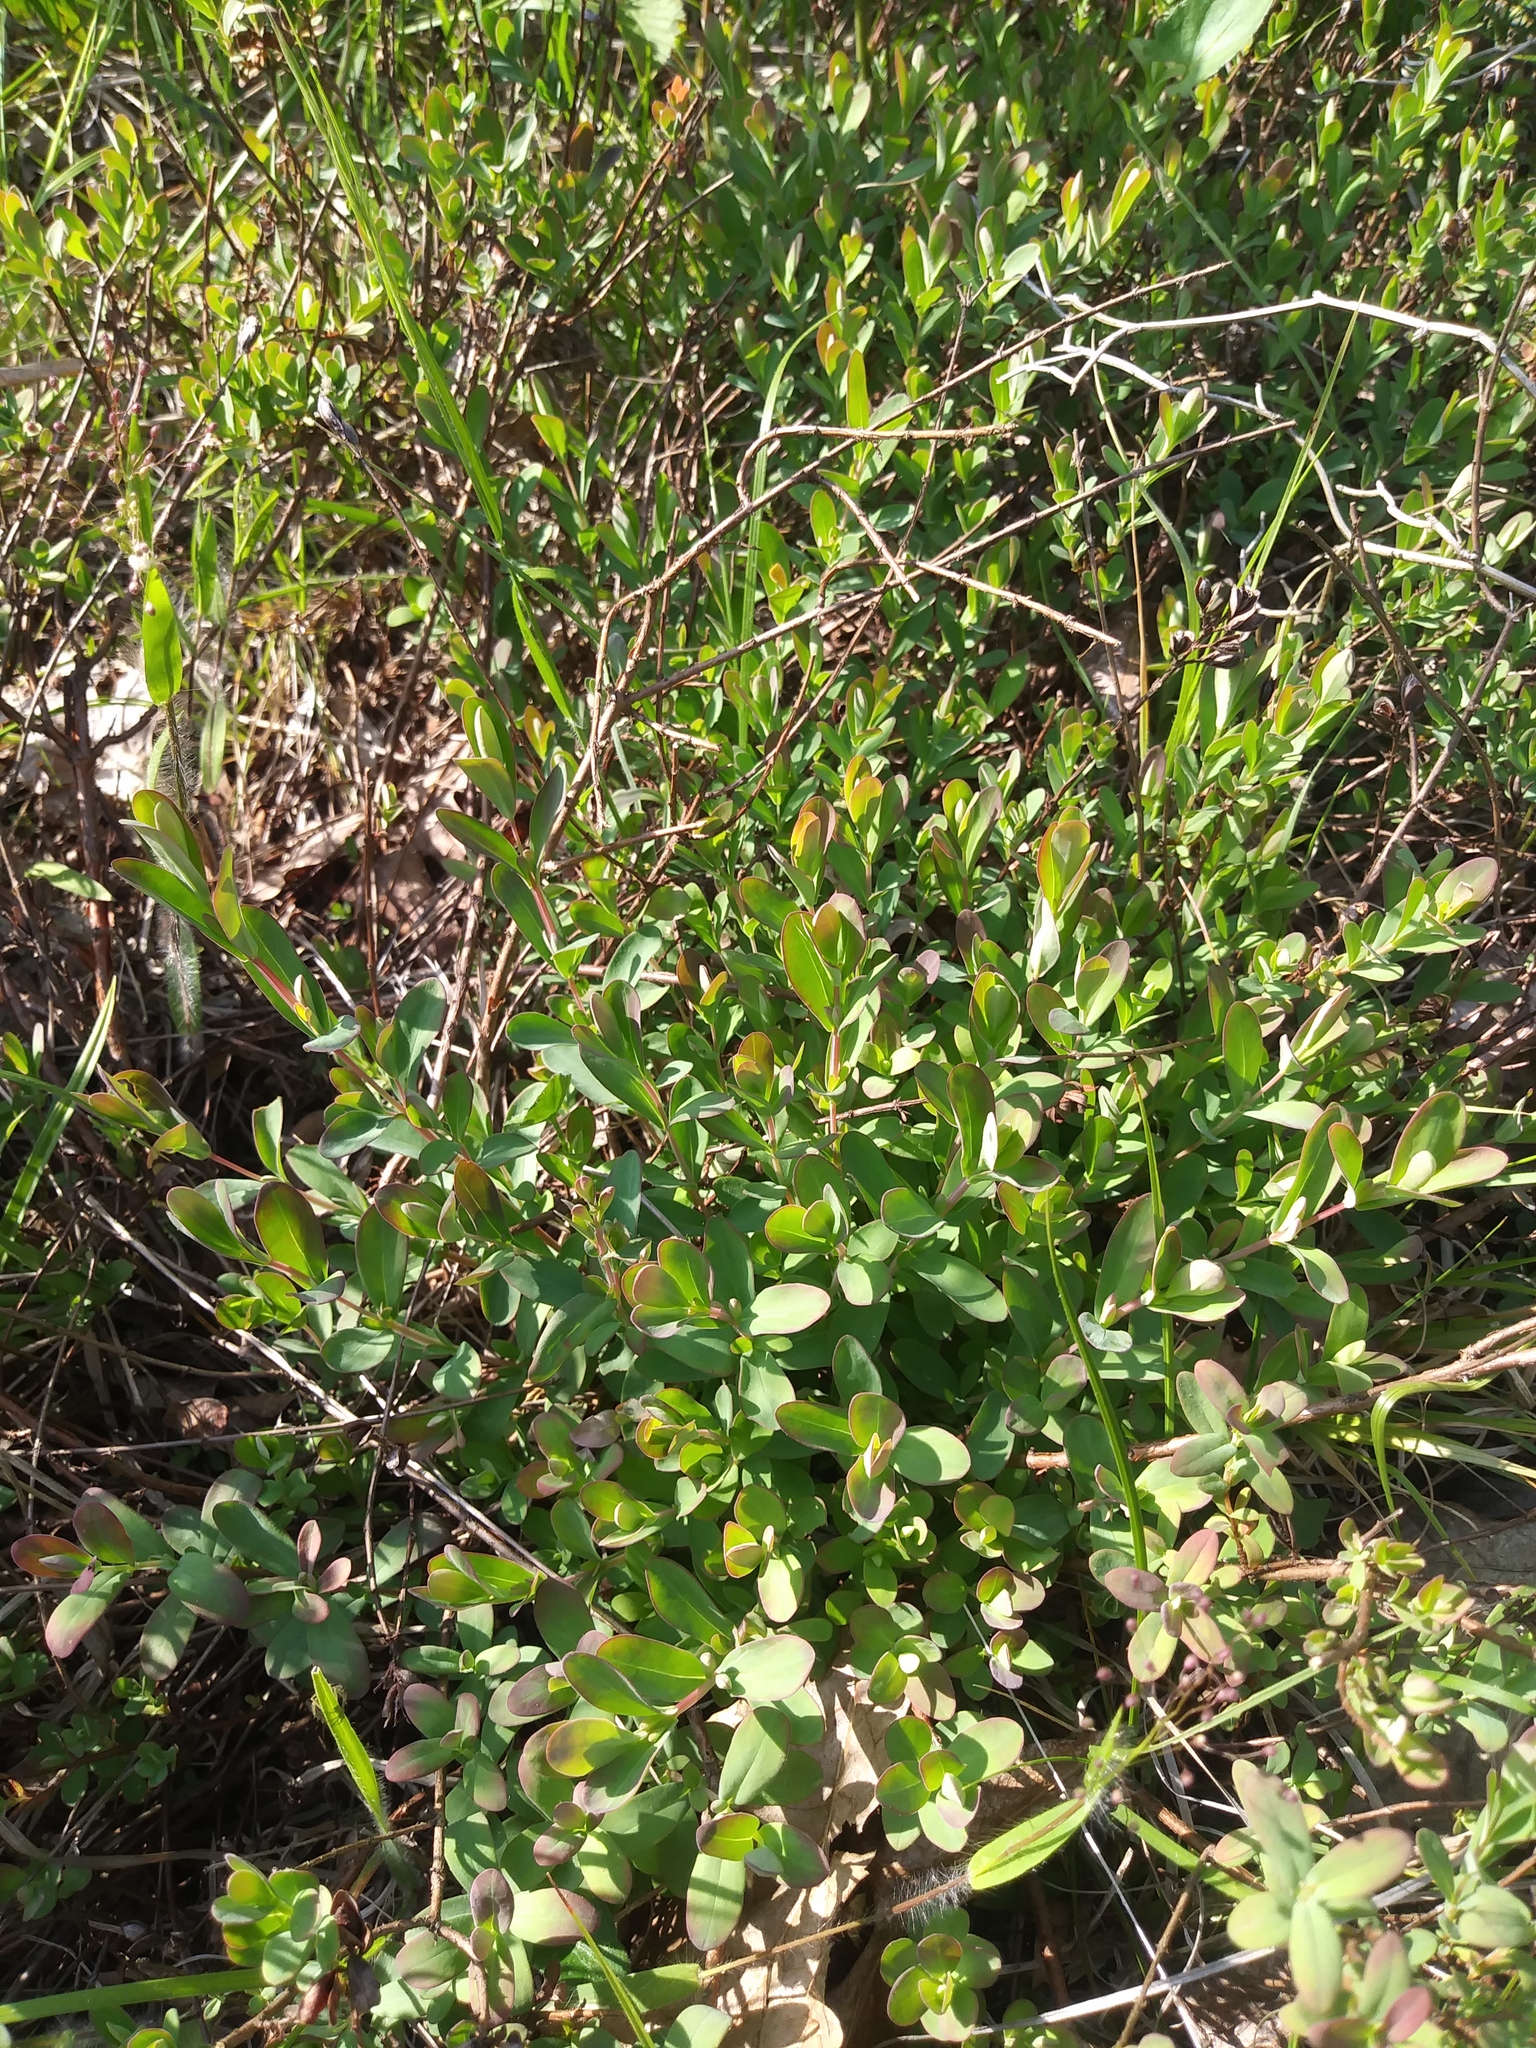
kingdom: Plantae
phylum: Tracheophyta
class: Magnoliopsida
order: Malpighiales
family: Hypericaceae
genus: Hypericum
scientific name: Hypericum hypericoides
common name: St. andrew's cross
